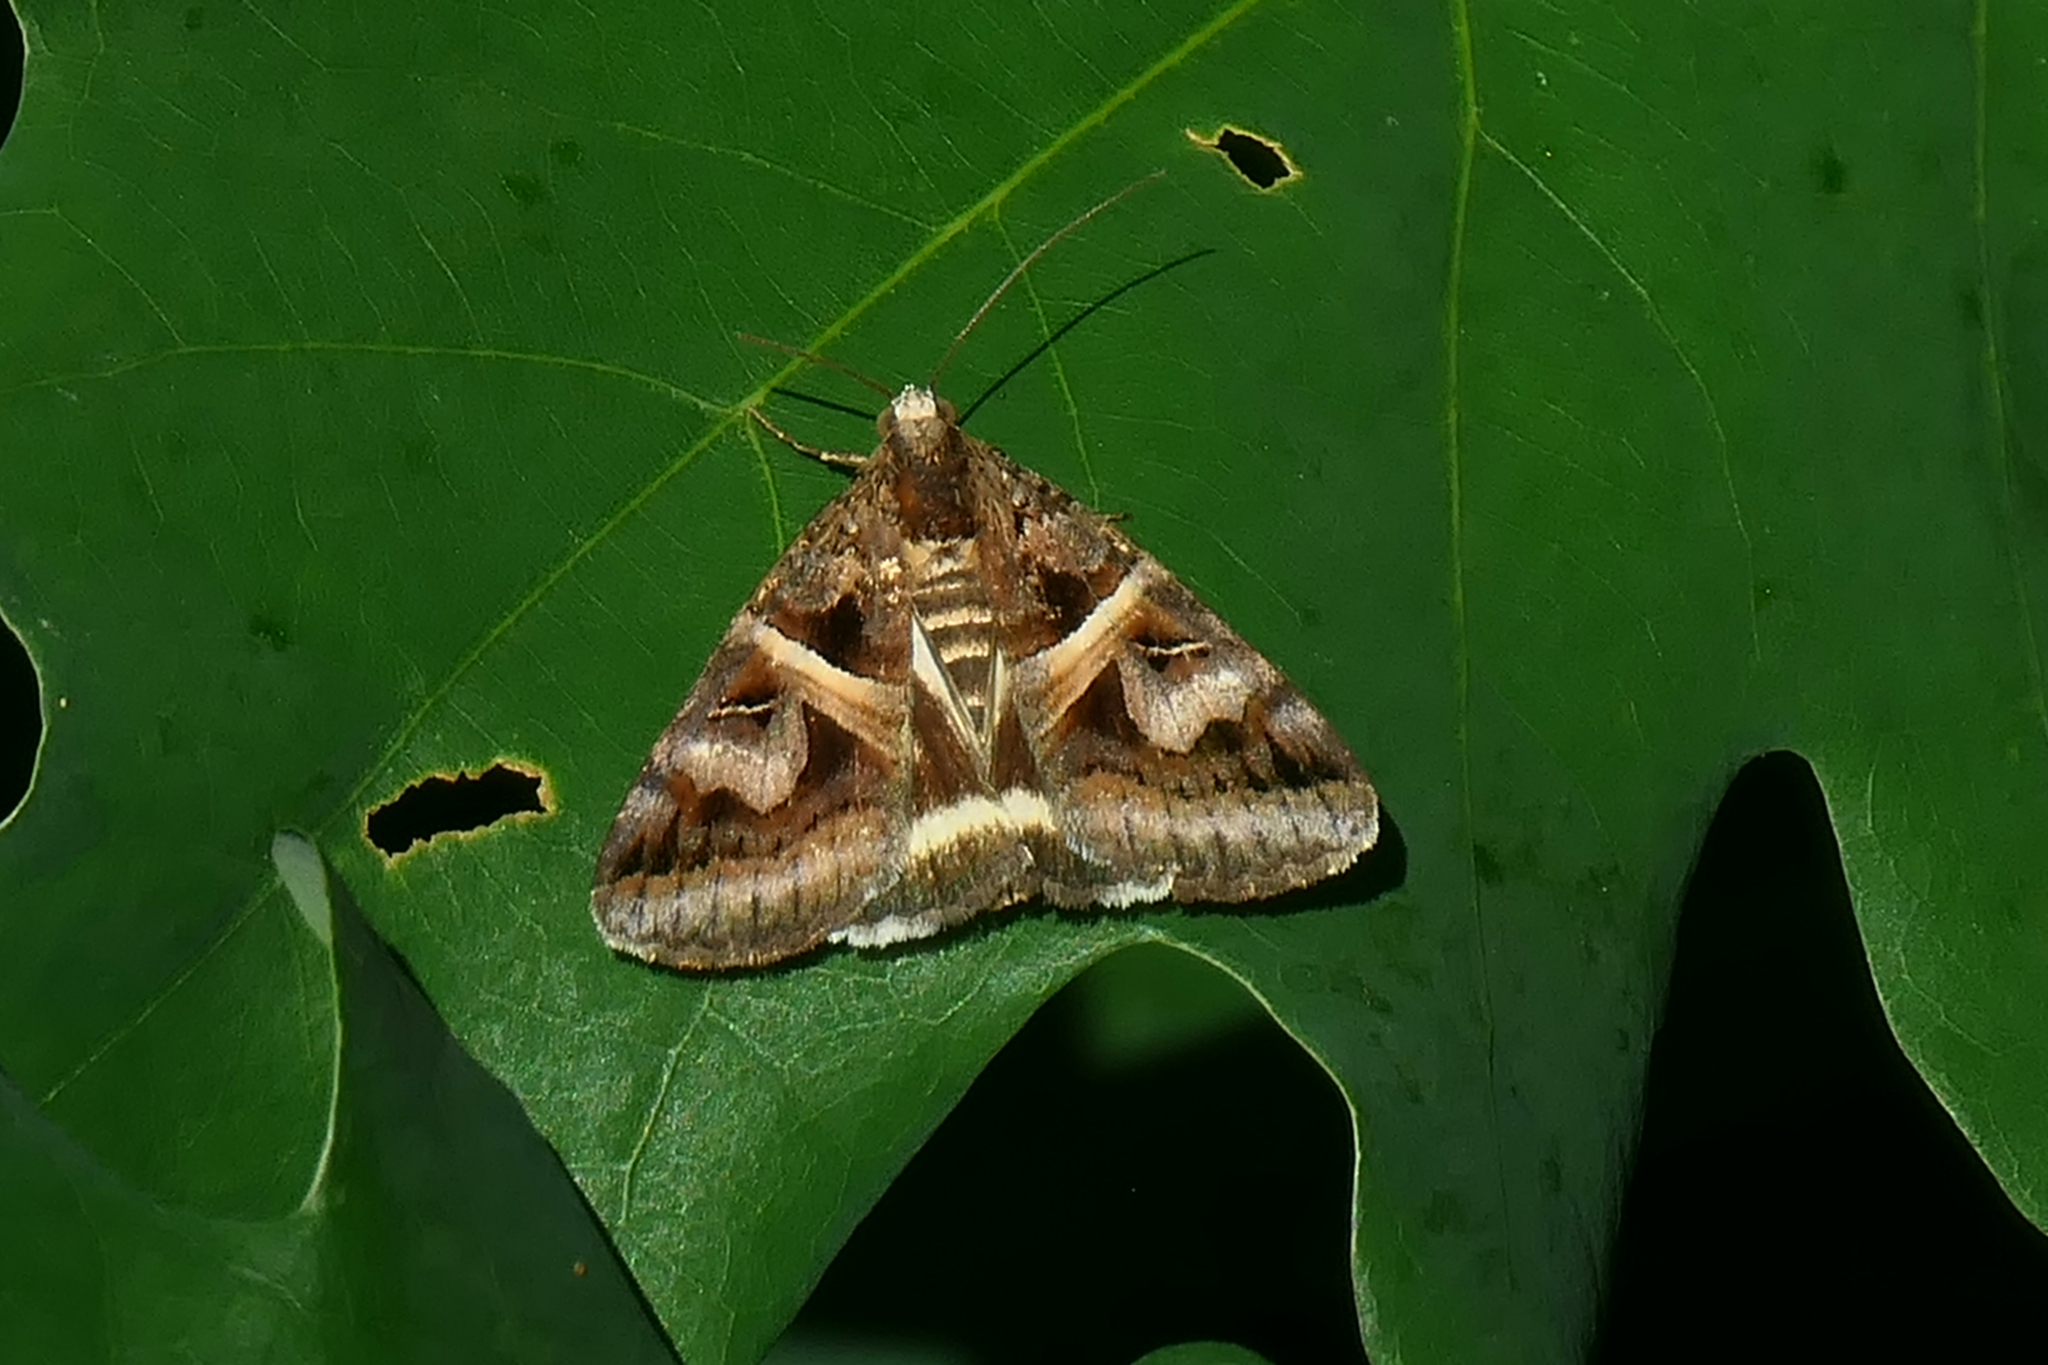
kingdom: Animalia
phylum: Arthropoda
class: Insecta
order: Lepidoptera
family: Erebidae
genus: Drasteria
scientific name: Drasteria grandirena
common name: Figure-seven moth
